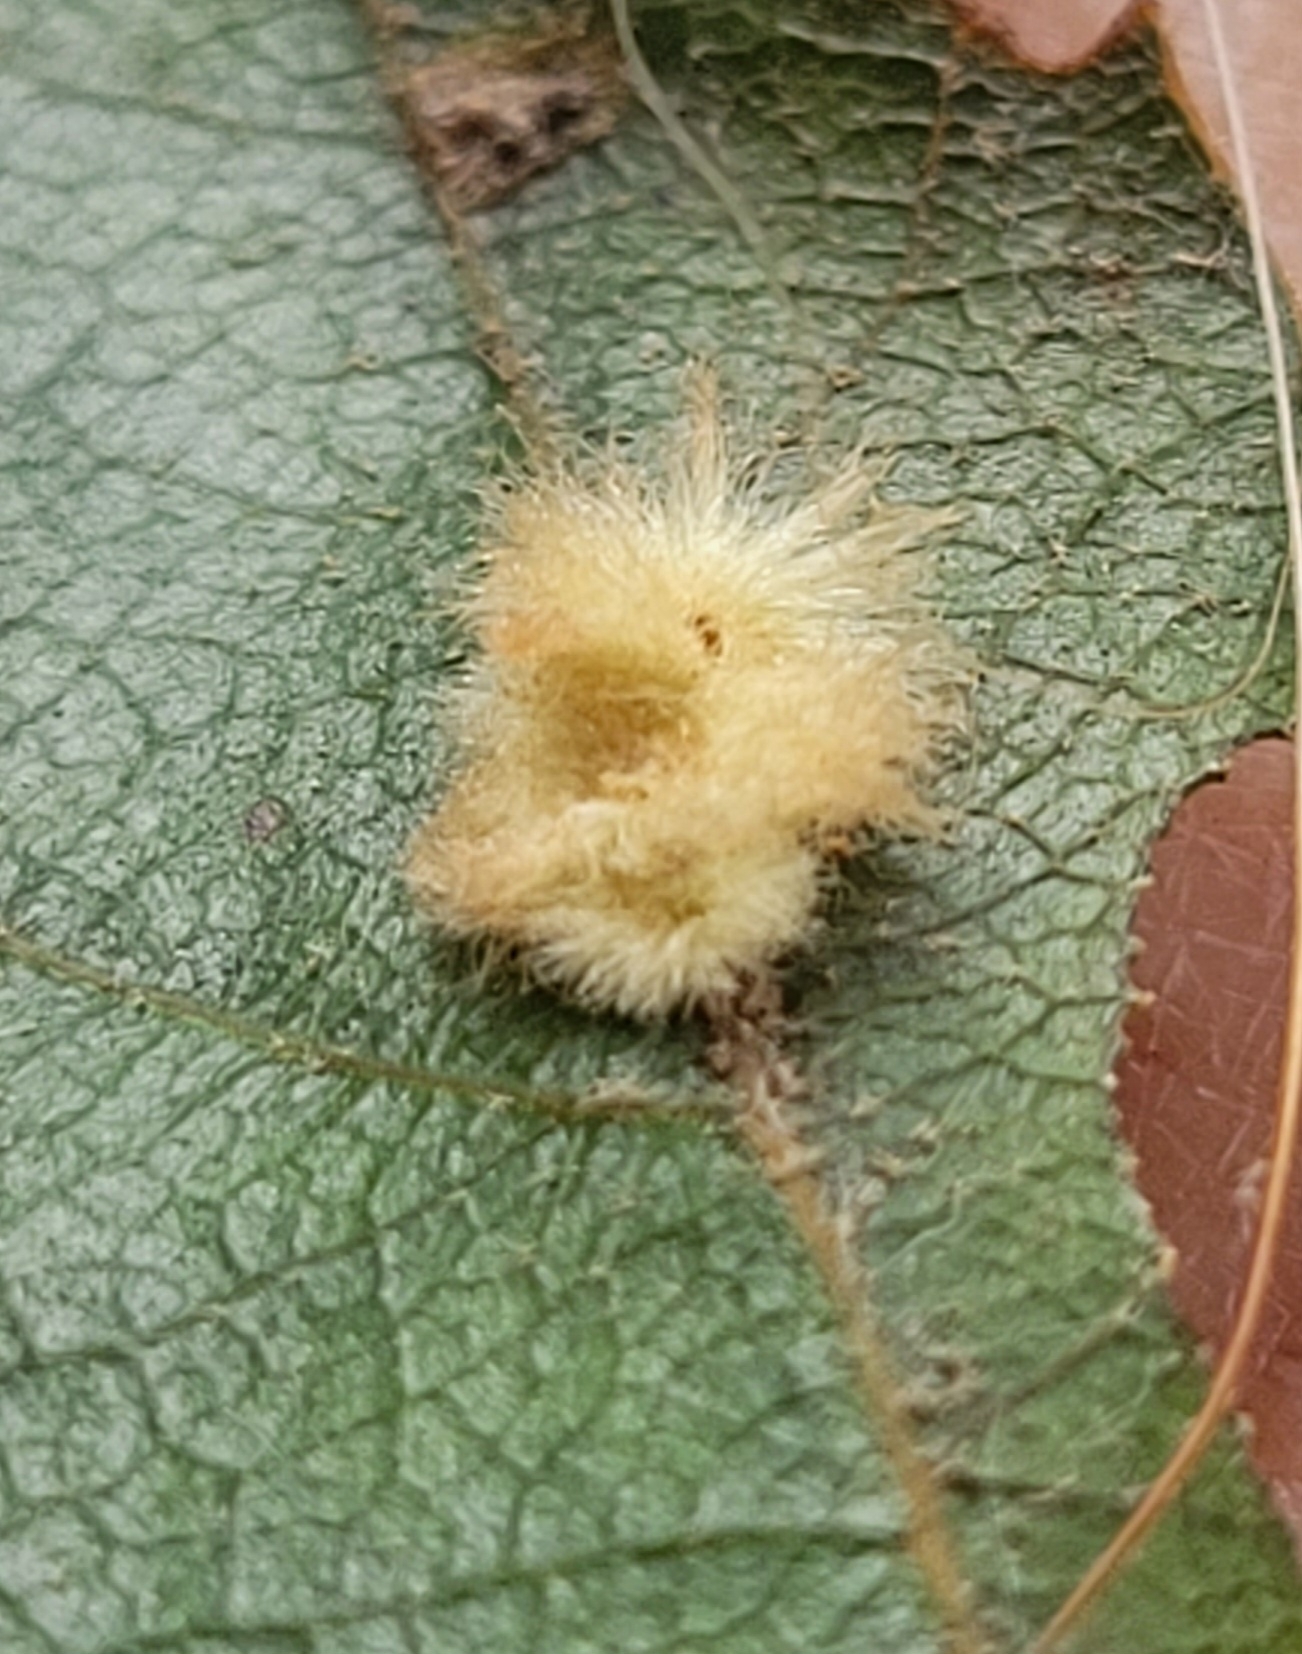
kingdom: Animalia
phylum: Arthropoda
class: Insecta
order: Hymenoptera
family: Cynipidae
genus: Callirhytis
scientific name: Callirhytis
